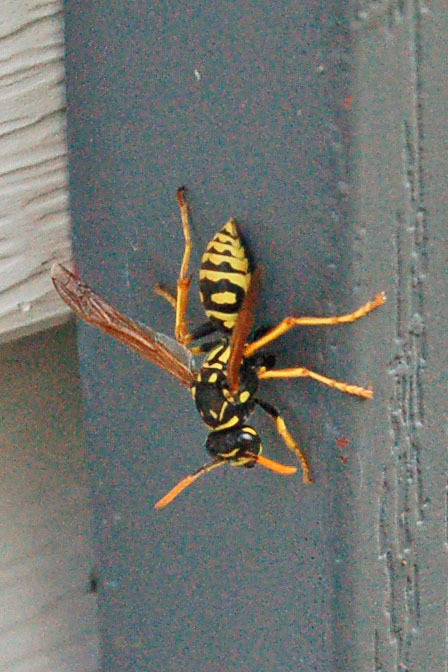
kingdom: Animalia
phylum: Arthropoda
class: Insecta
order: Hymenoptera
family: Eumenidae
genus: Polistes
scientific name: Polistes dominula
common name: Paper wasp
